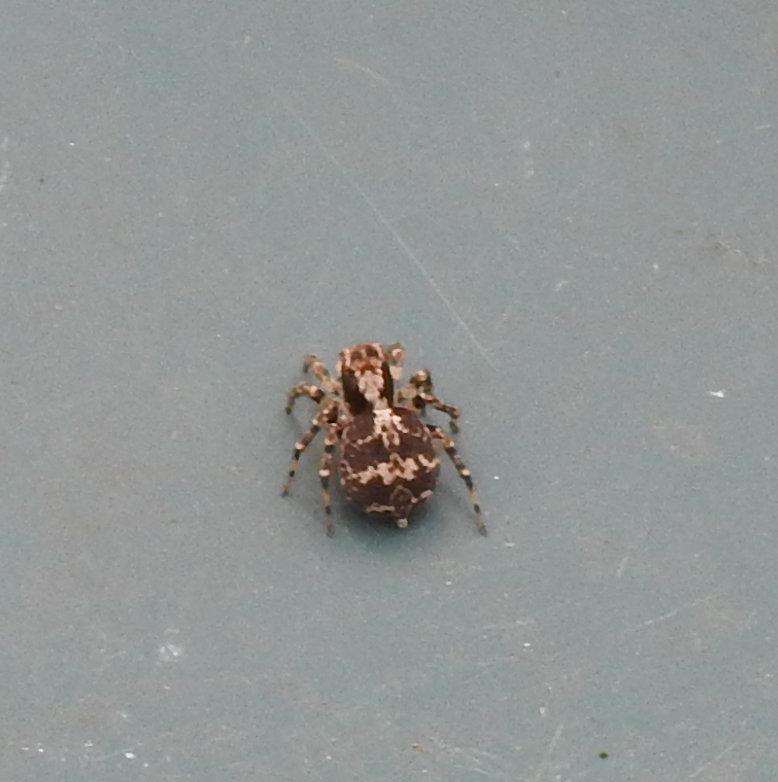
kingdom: Animalia
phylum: Arthropoda
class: Arachnida
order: Araneae
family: Salticidae
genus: Naphrys
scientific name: Naphrys pulex
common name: Flea jumping spider
